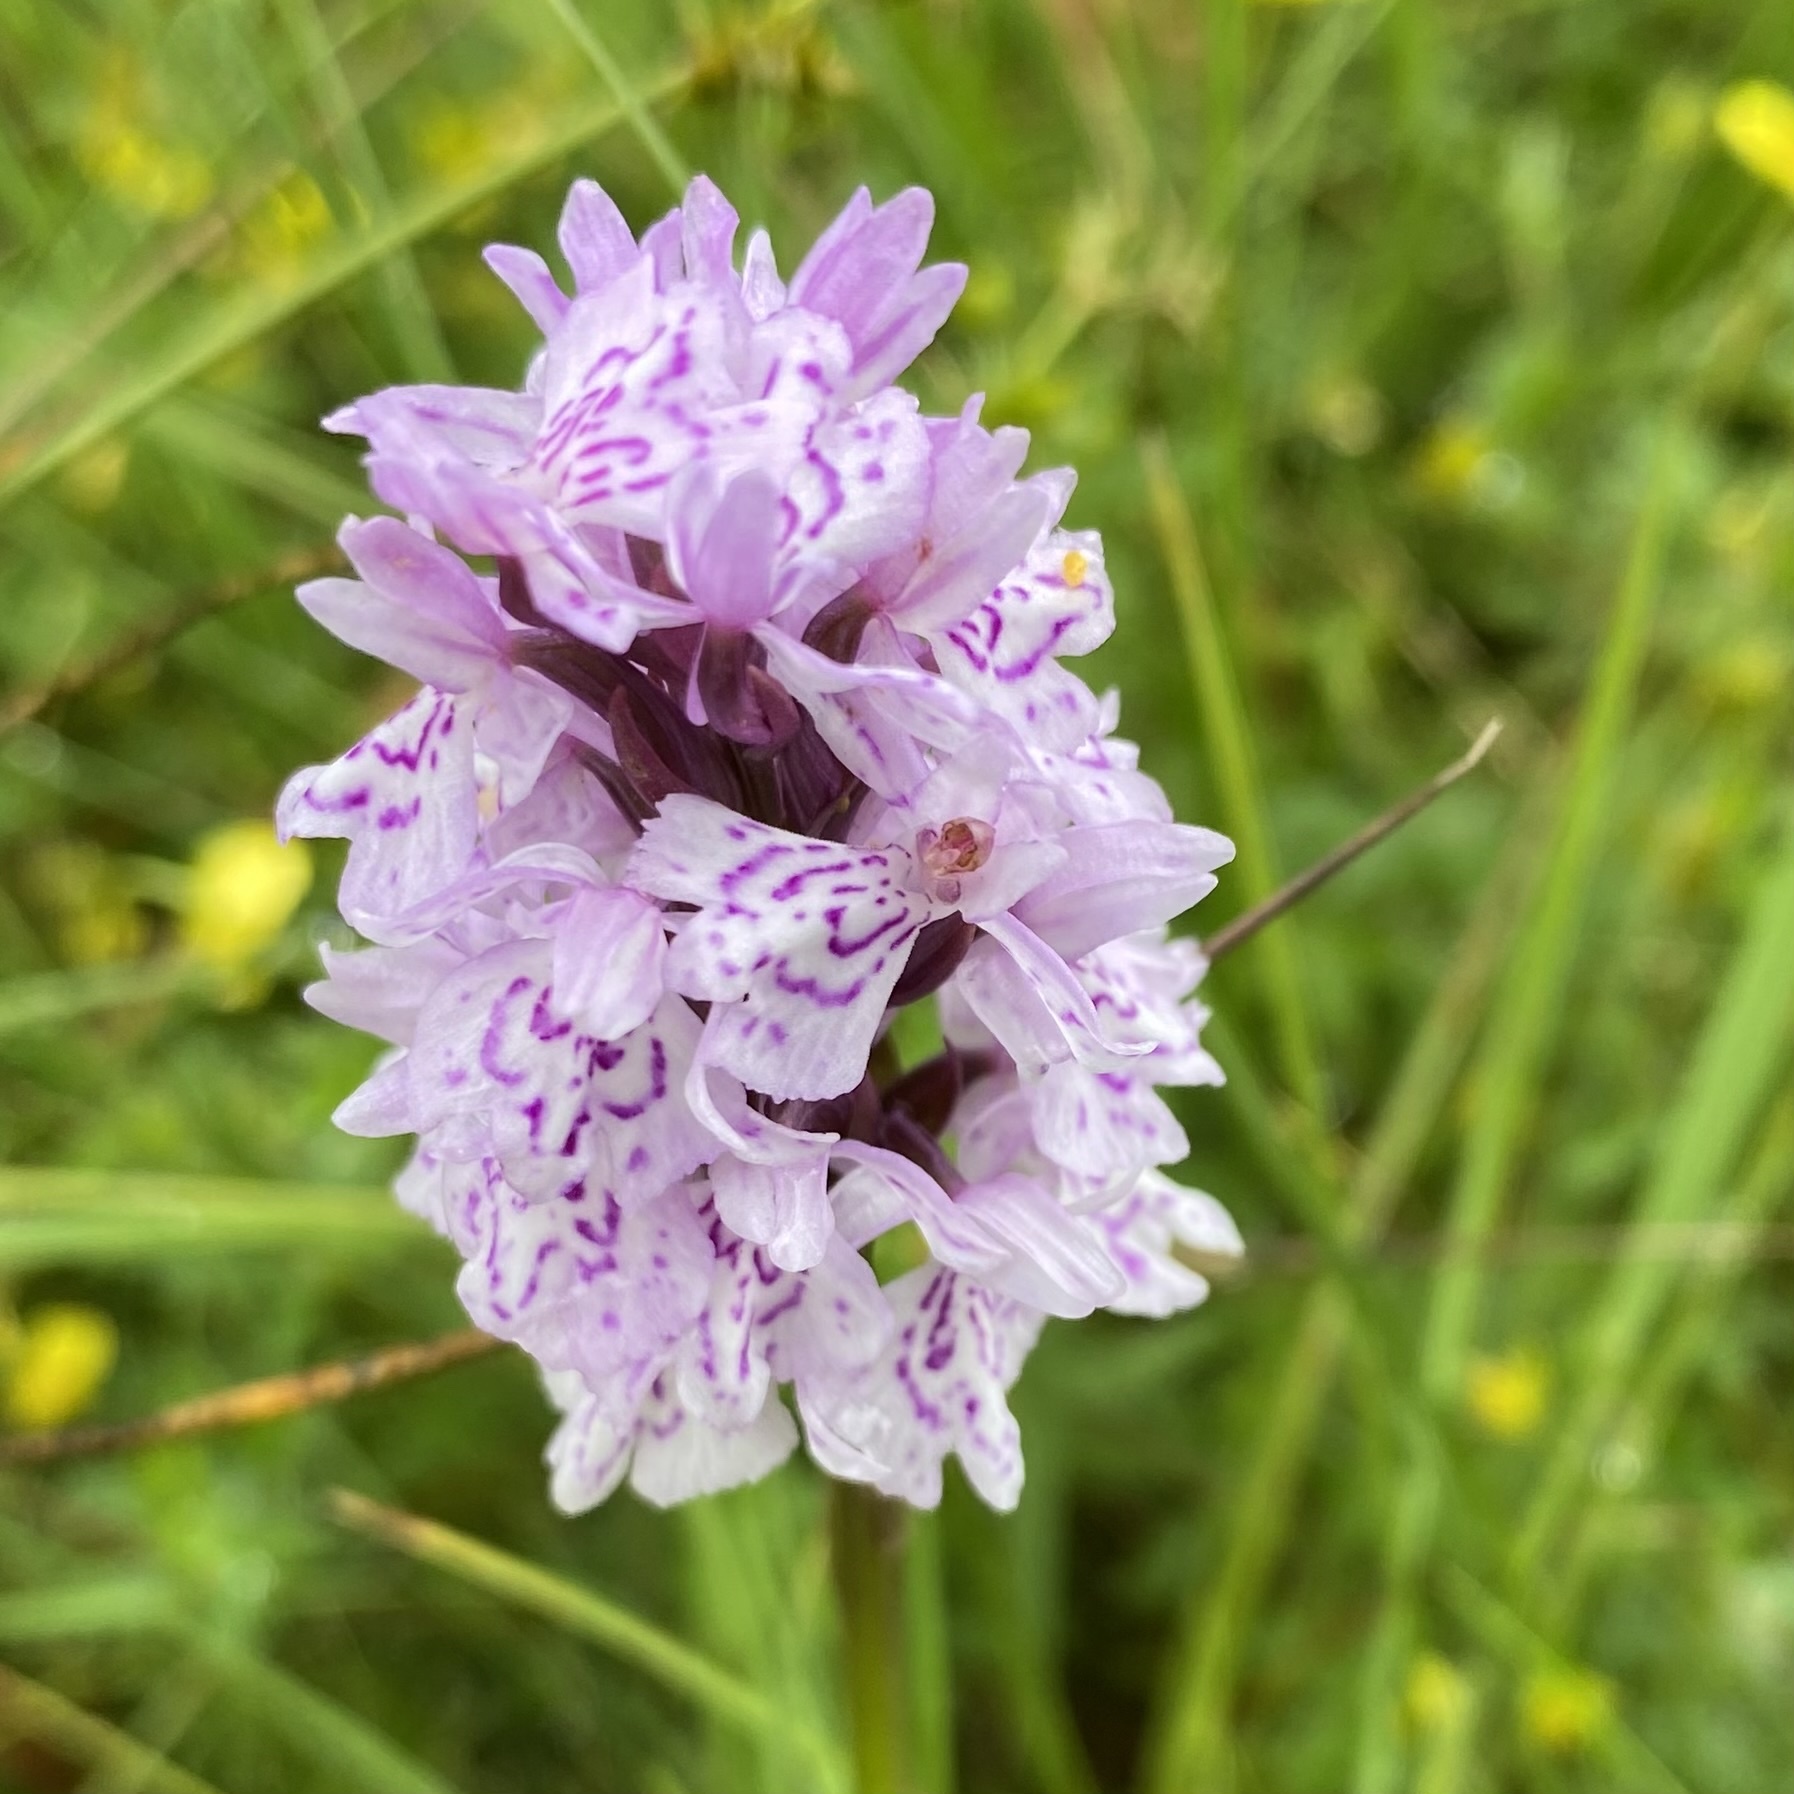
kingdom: Plantae
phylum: Tracheophyta
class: Liliopsida
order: Asparagales
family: Orchidaceae
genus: Dactylorhiza
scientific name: Dactylorhiza maculata
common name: Heath spotted-orchid
